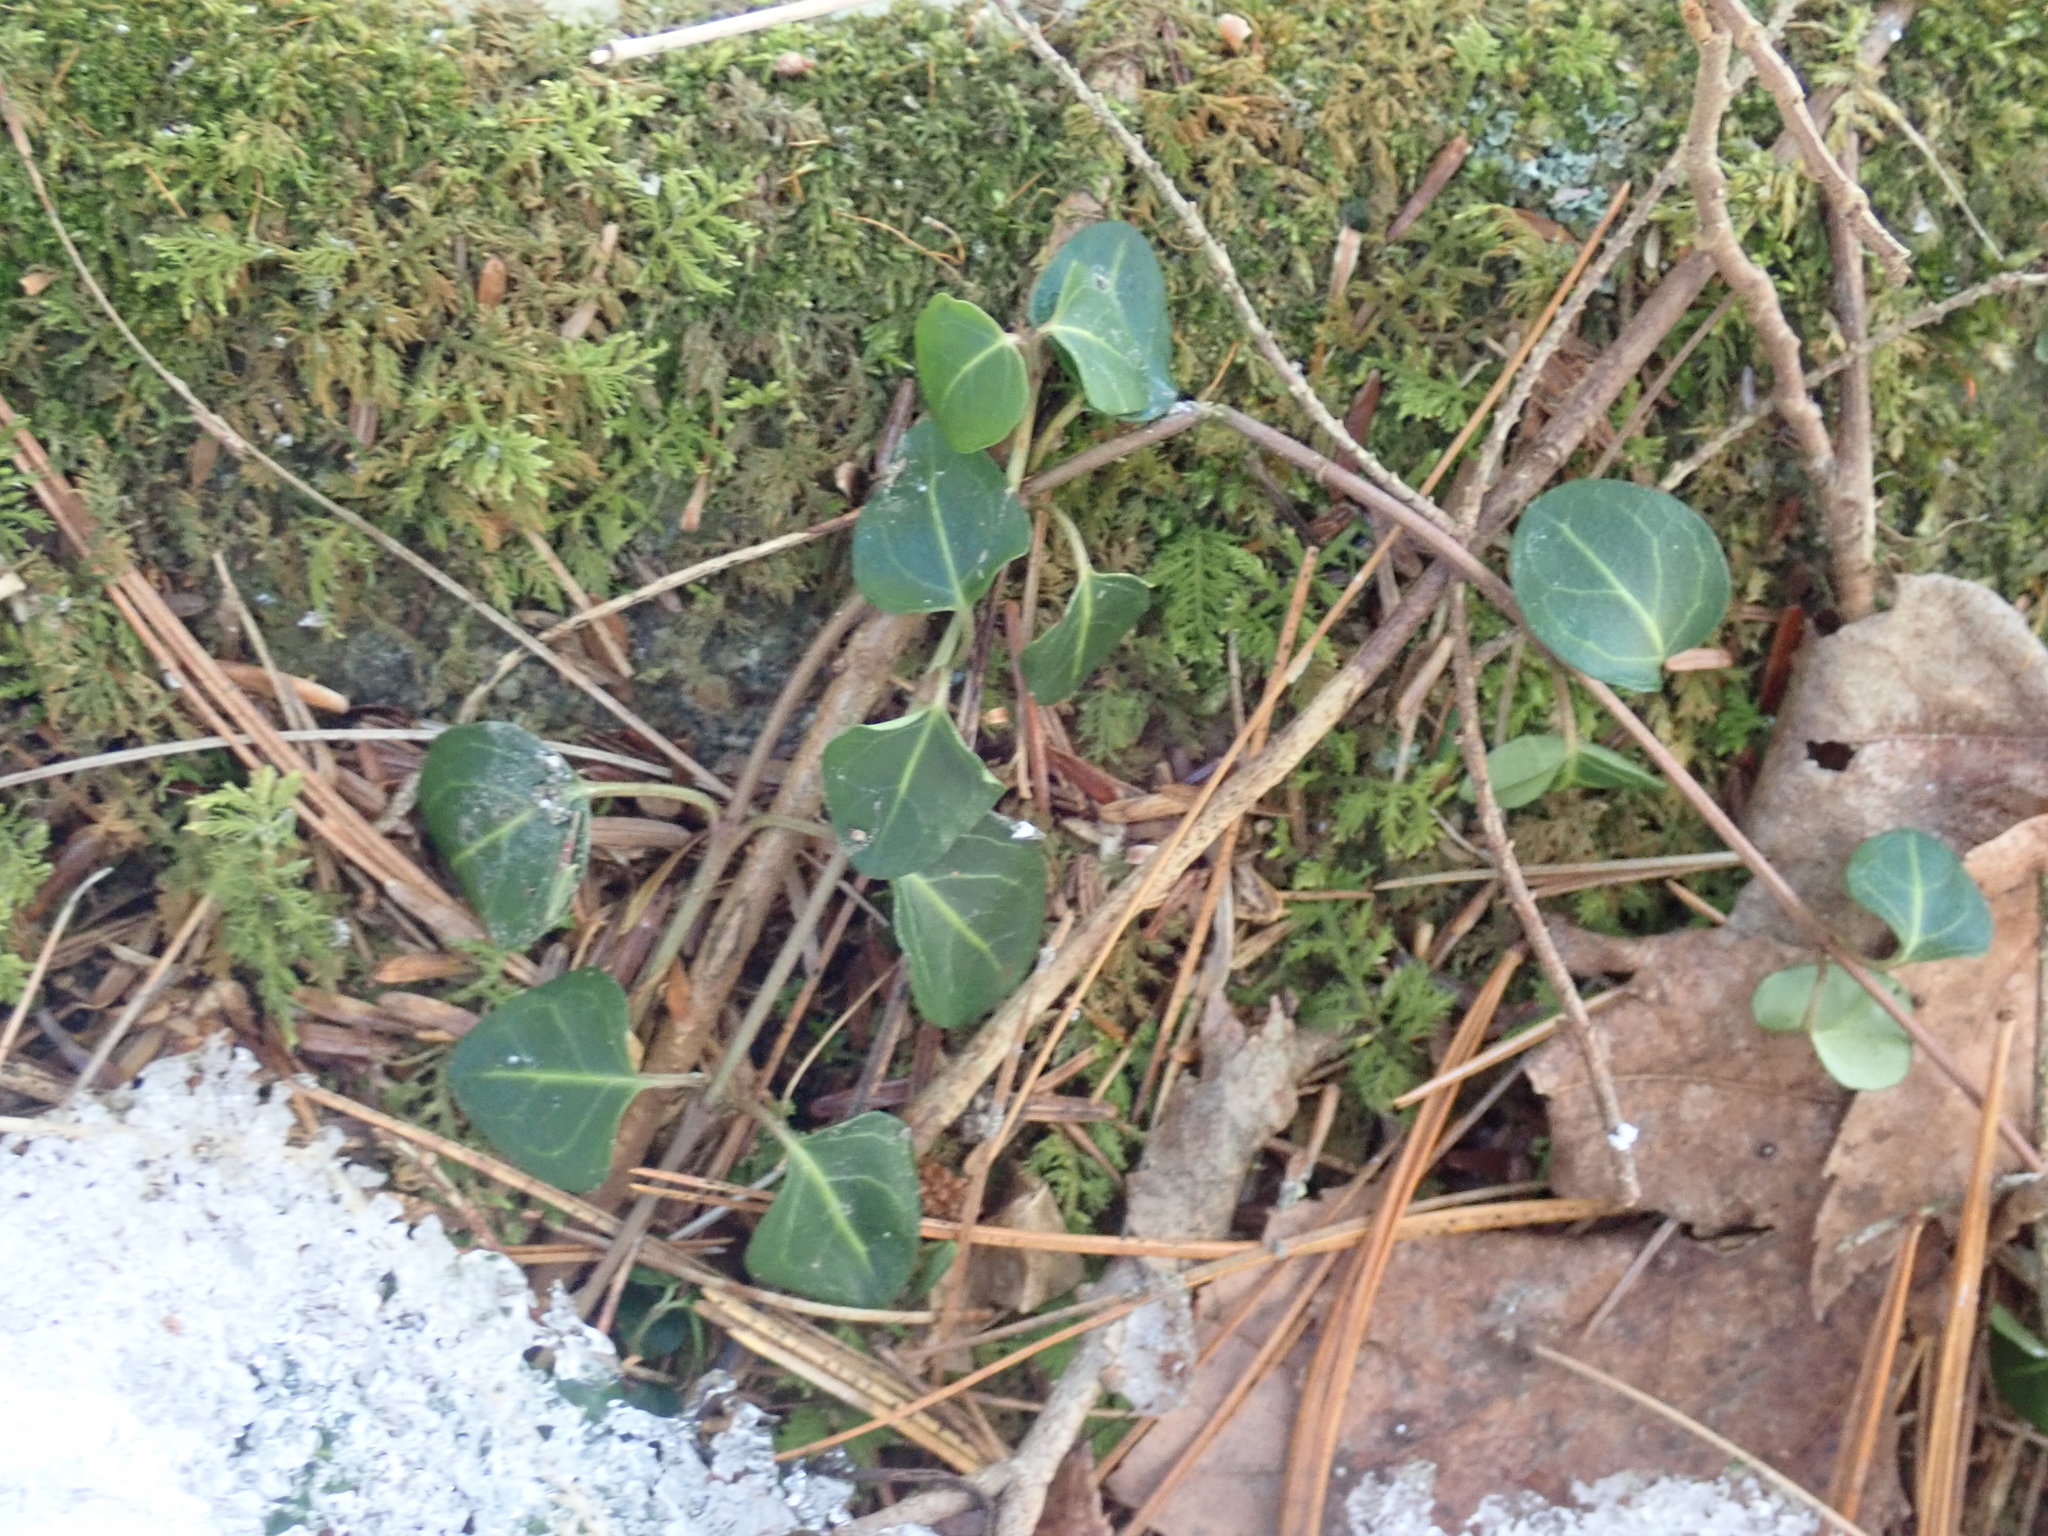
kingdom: Plantae
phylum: Tracheophyta
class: Magnoliopsida
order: Gentianales
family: Rubiaceae
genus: Mitchella
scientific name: Mitchella repens
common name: Partridge-berry
